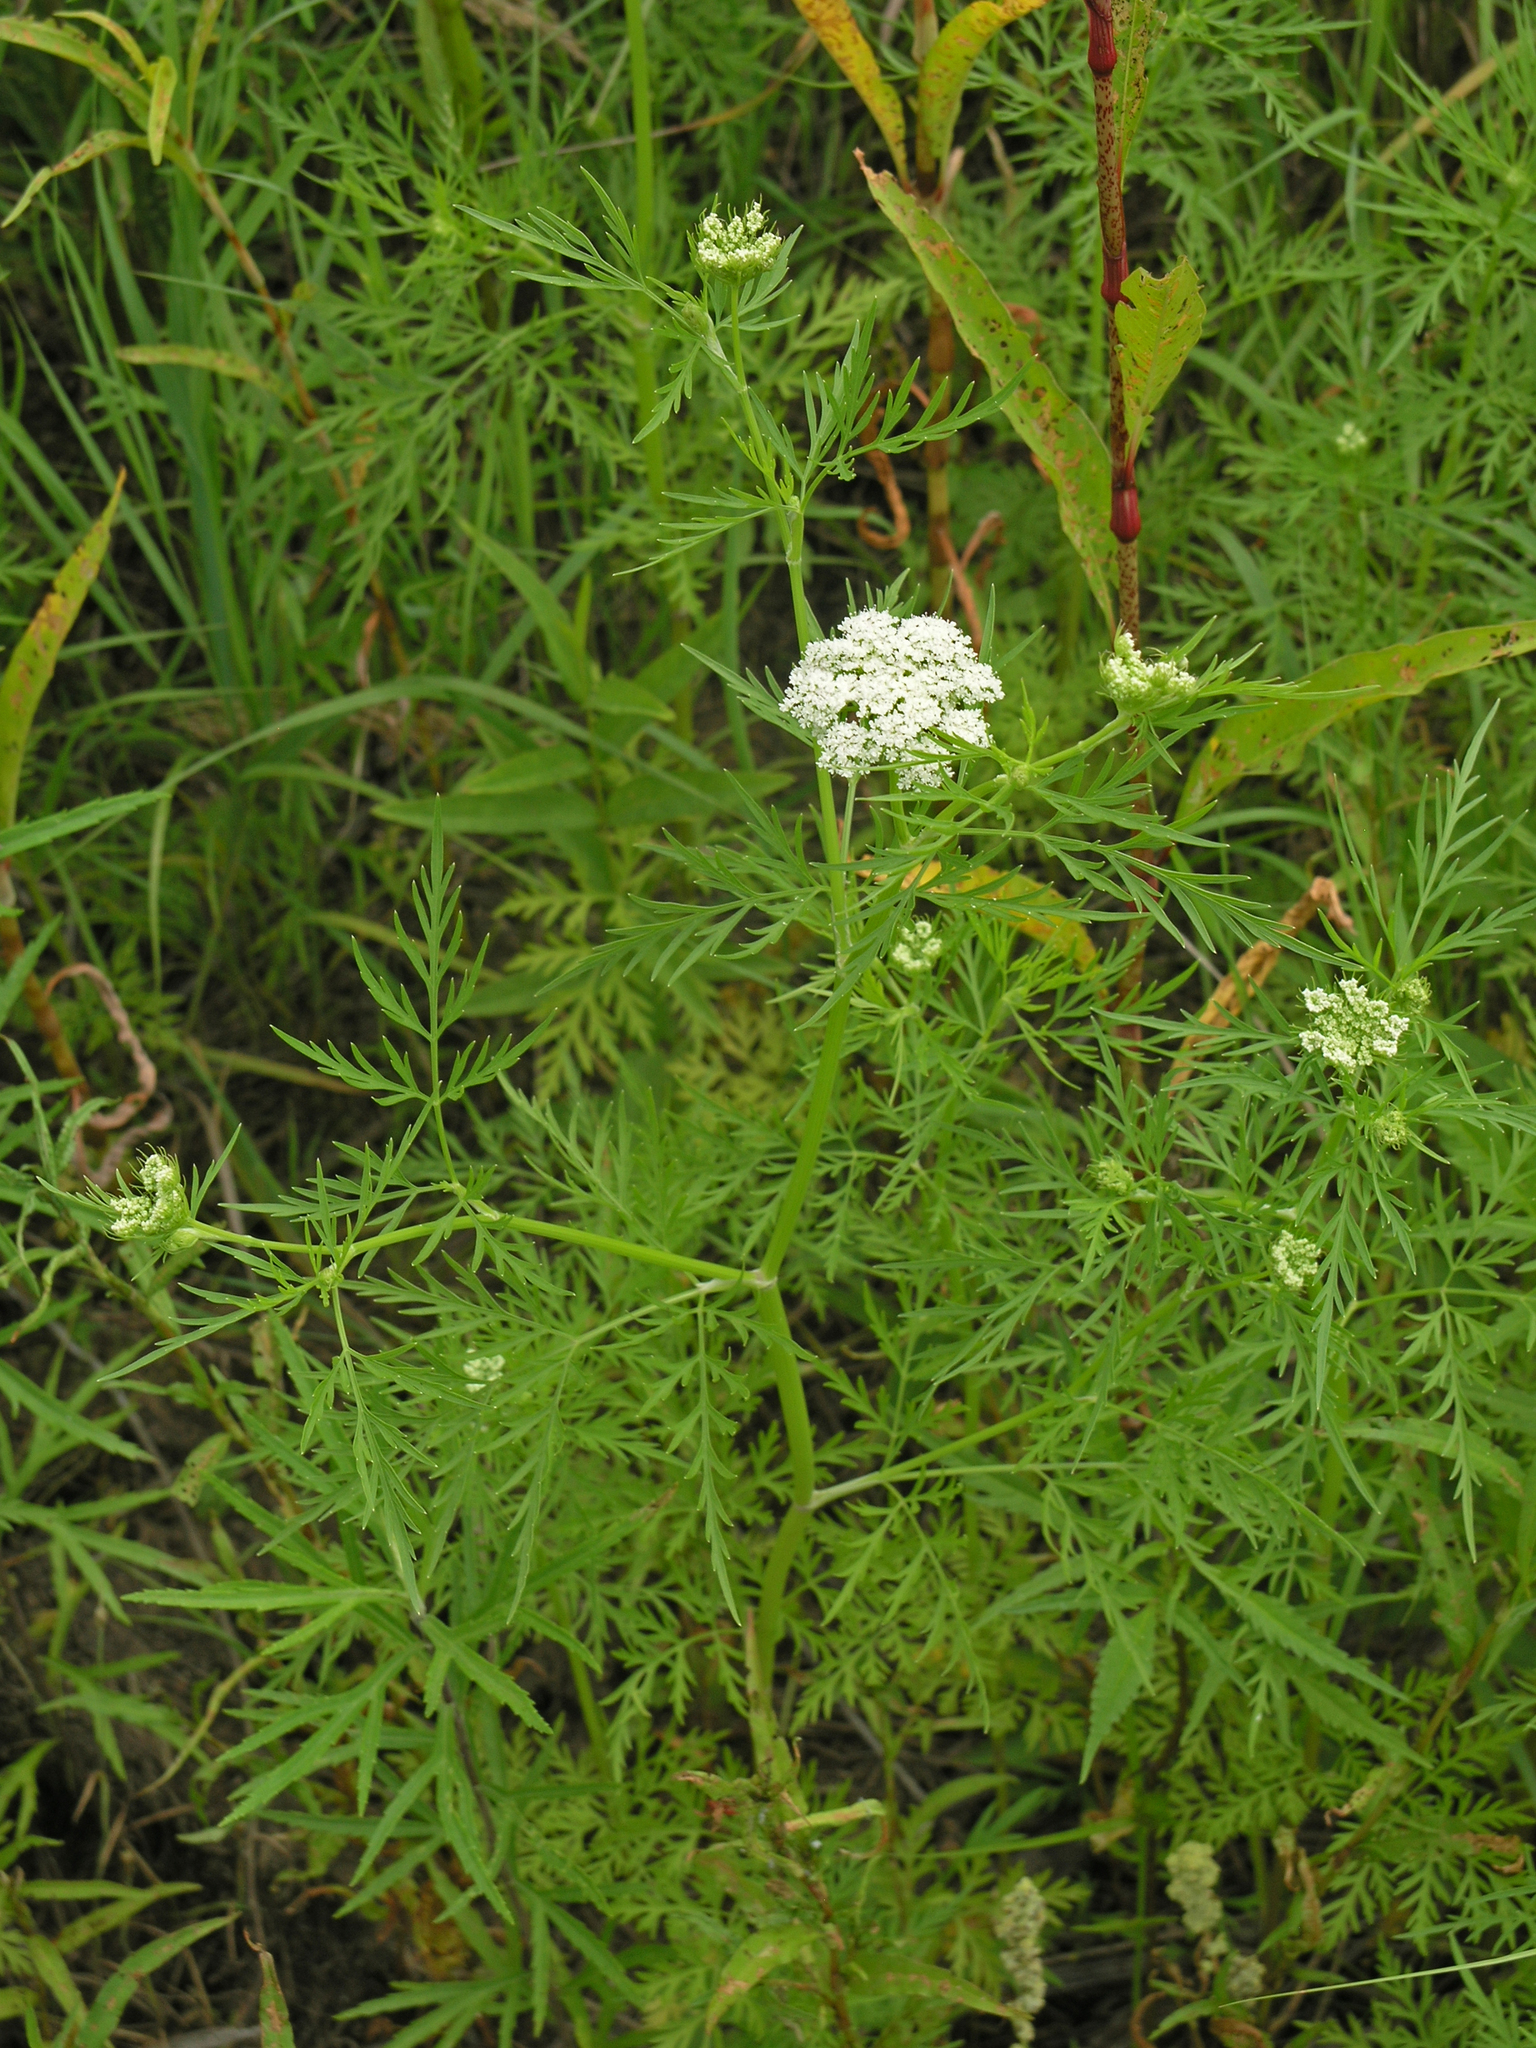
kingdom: Plantae
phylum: Tracheophyta
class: Magnoliopsida
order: Apiales
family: Apiaceae
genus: Cnidium
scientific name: Cnidium monnieri
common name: Monnier's snowparsley
